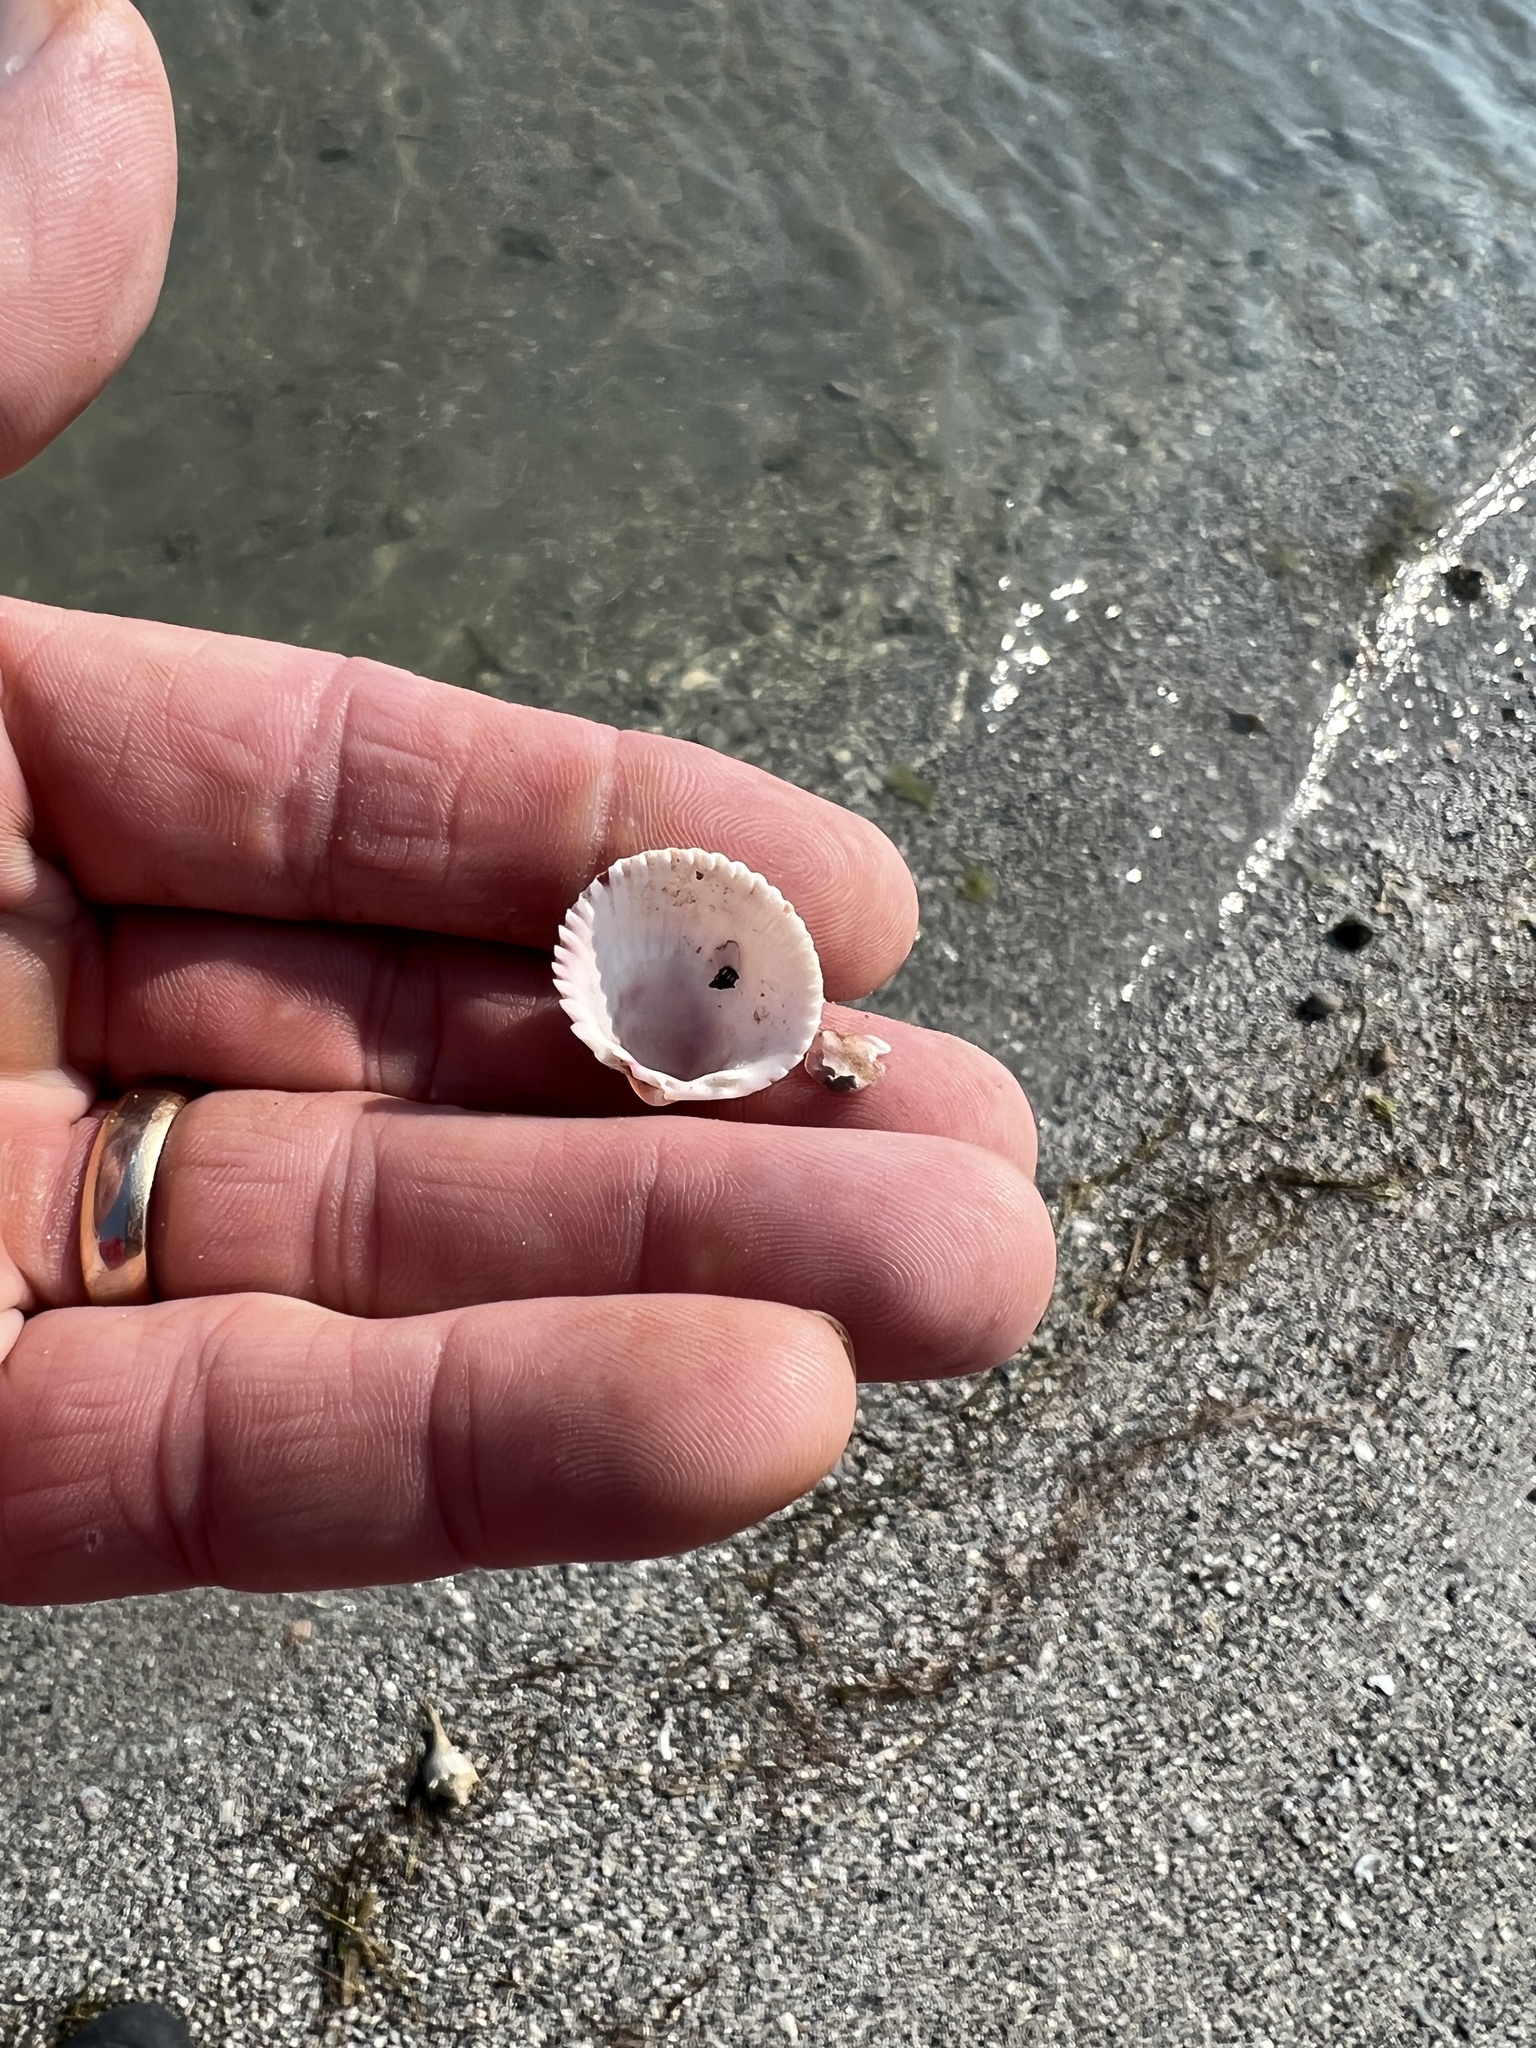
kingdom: Animalia
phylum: Mollusca
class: Bivalvia
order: Cardiida
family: Cardiidae
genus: Dinocardium
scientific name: Dinocardium robustum
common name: Atlantic giant cockle
